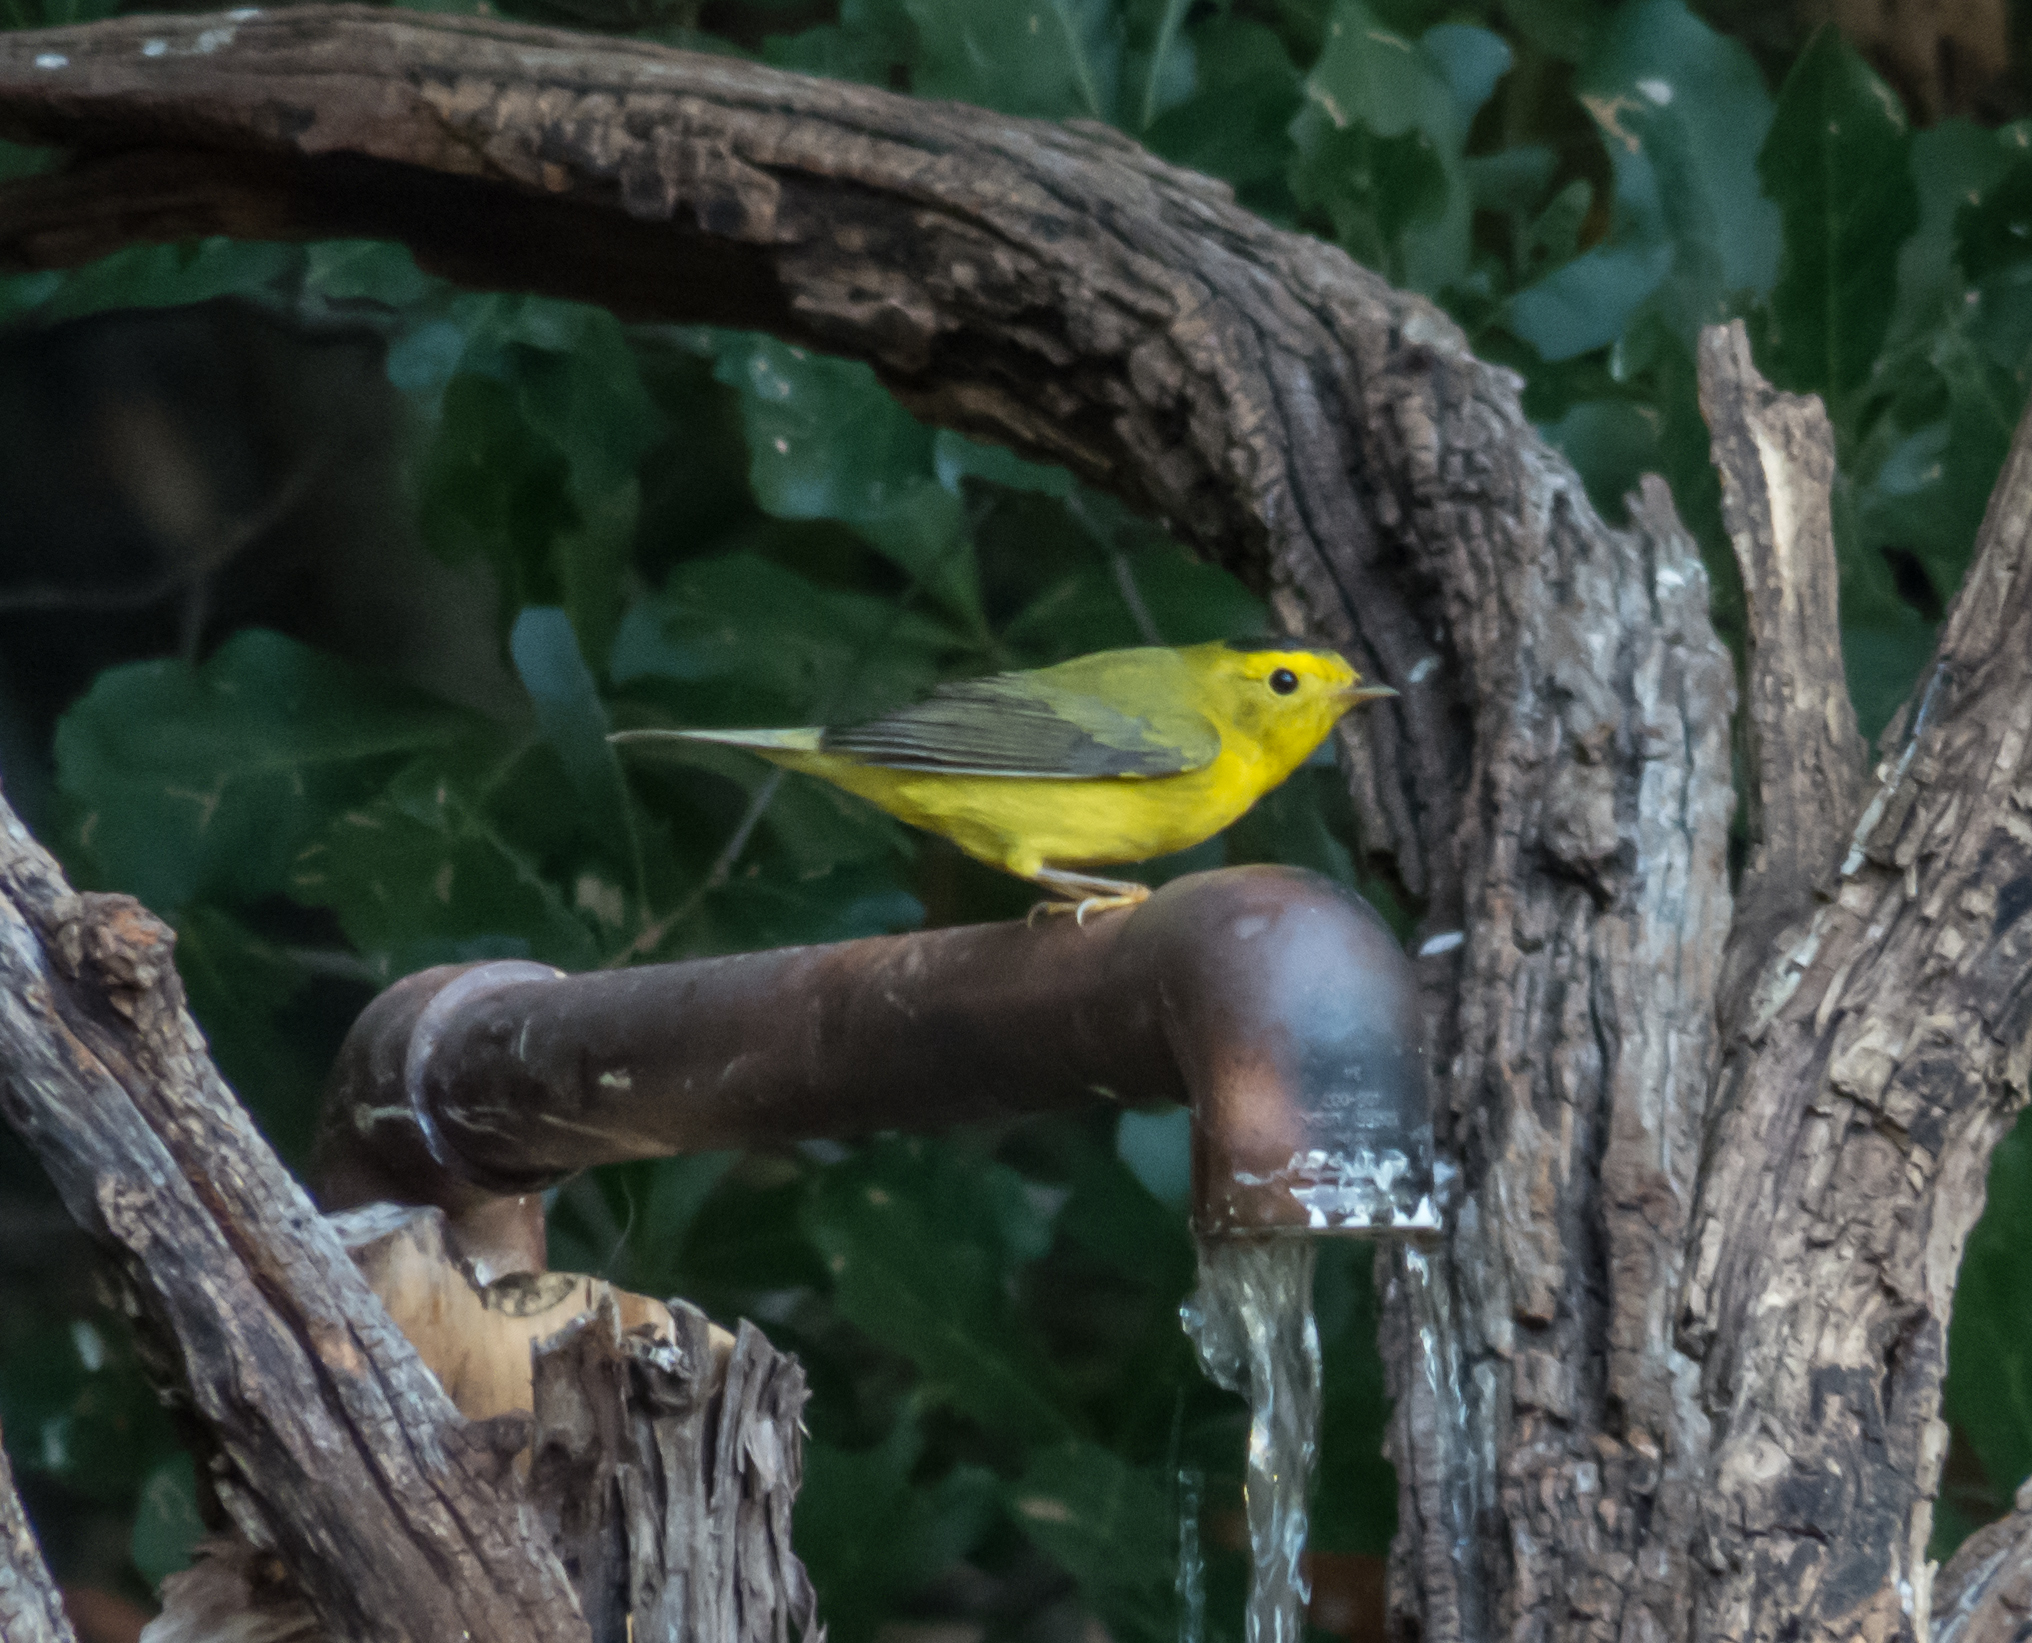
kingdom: Animalia
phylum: Chordata
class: Aves
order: Passeriformes
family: Parulidae
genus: Cardellina
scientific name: Cardellina pusilla
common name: Wilson's warbler
